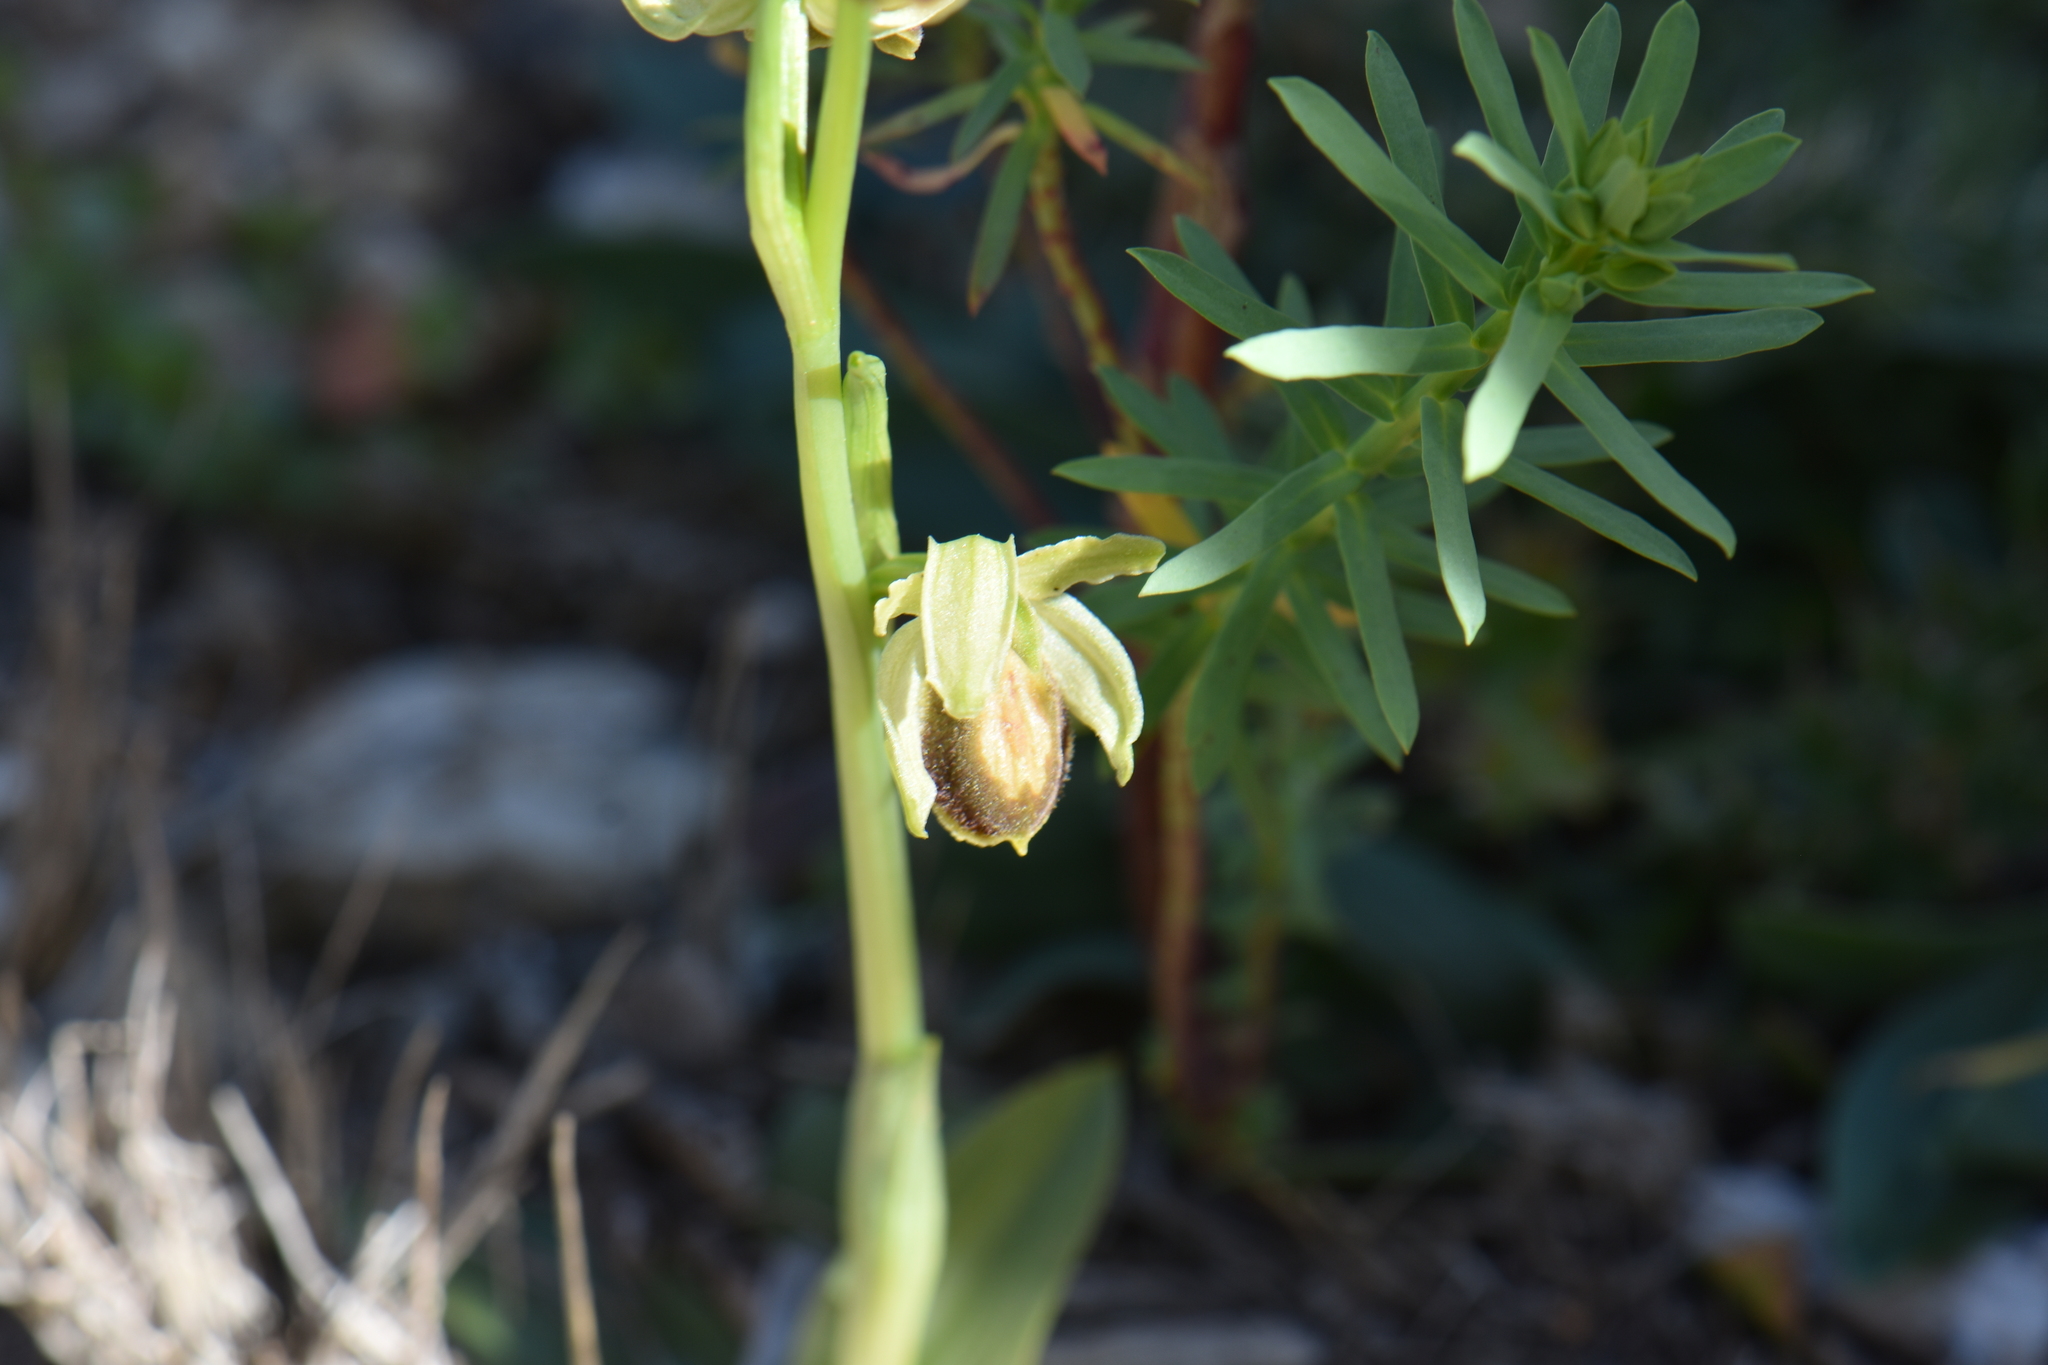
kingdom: Plantae
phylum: Tracheophyta
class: Liliopsida
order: Asparagales
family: Orchidaceae
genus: Ophrys
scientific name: Ophrys arachnitiformis
